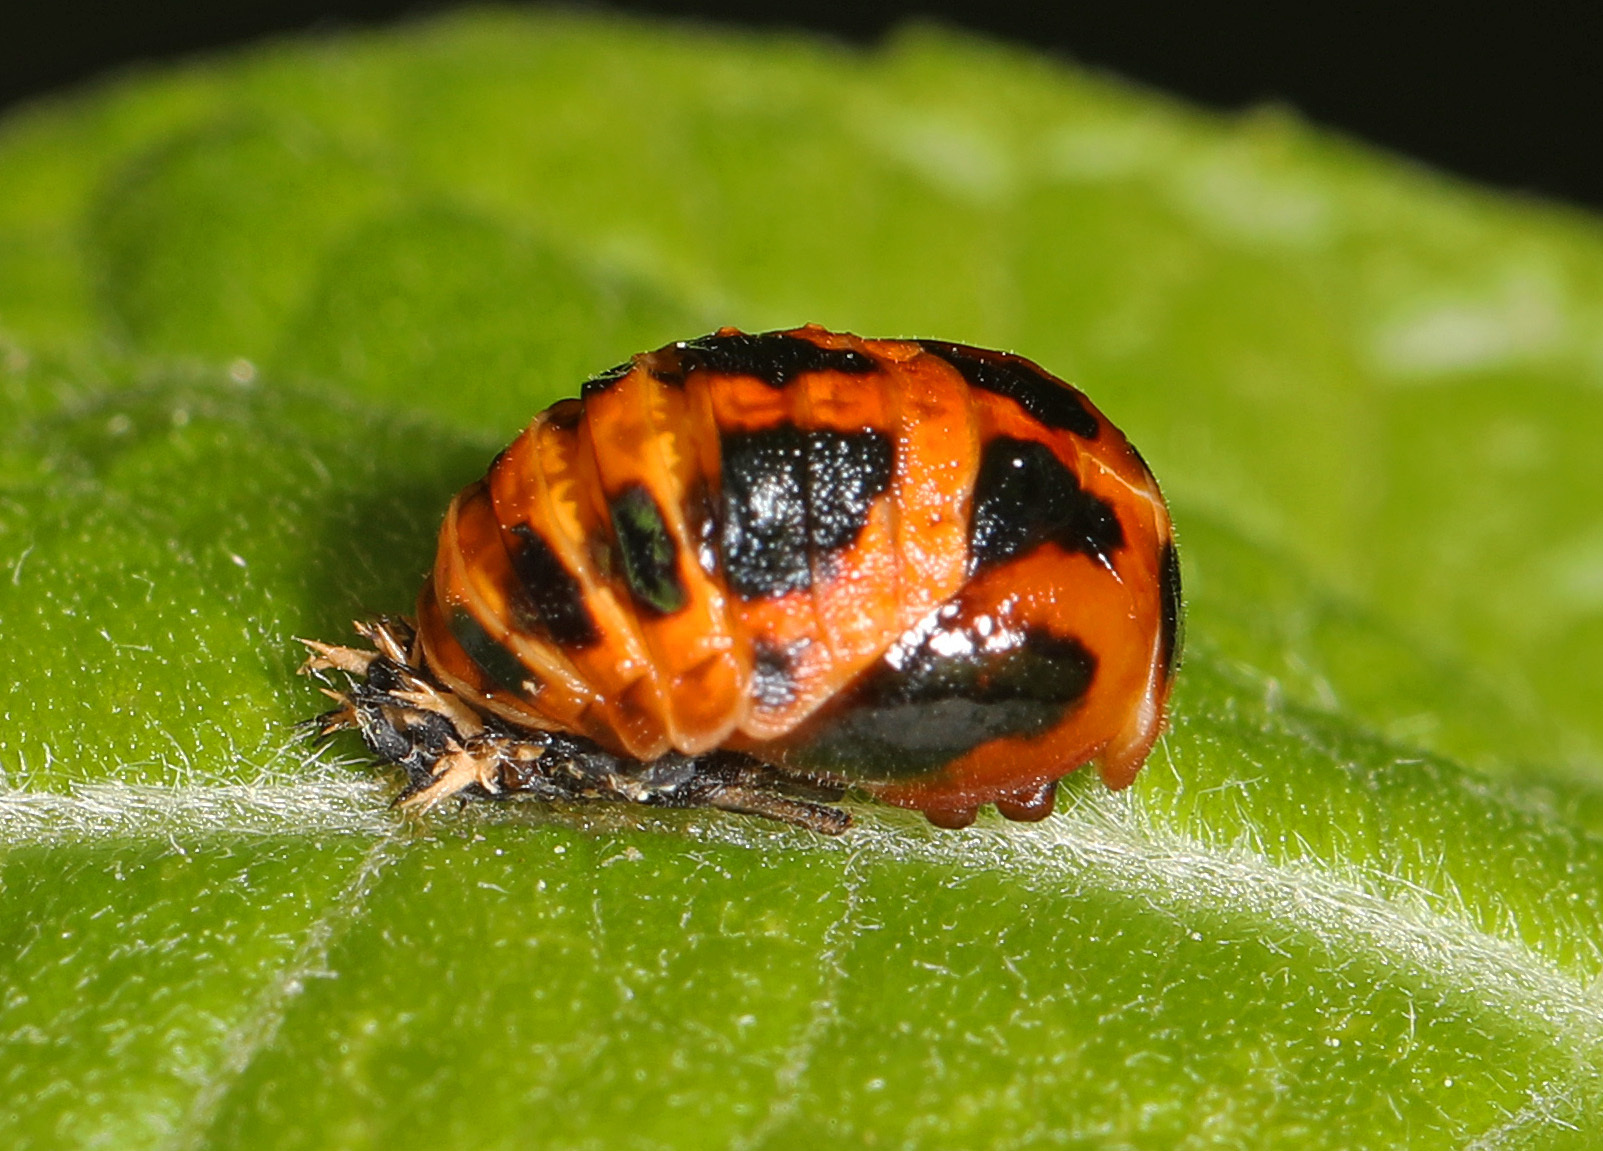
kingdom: Animalia
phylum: Arthropoda
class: Insecta
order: Coleoptera
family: Coccinellidae
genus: Harmonia
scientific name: Harmonia axyridis
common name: Harlequin ladybird
